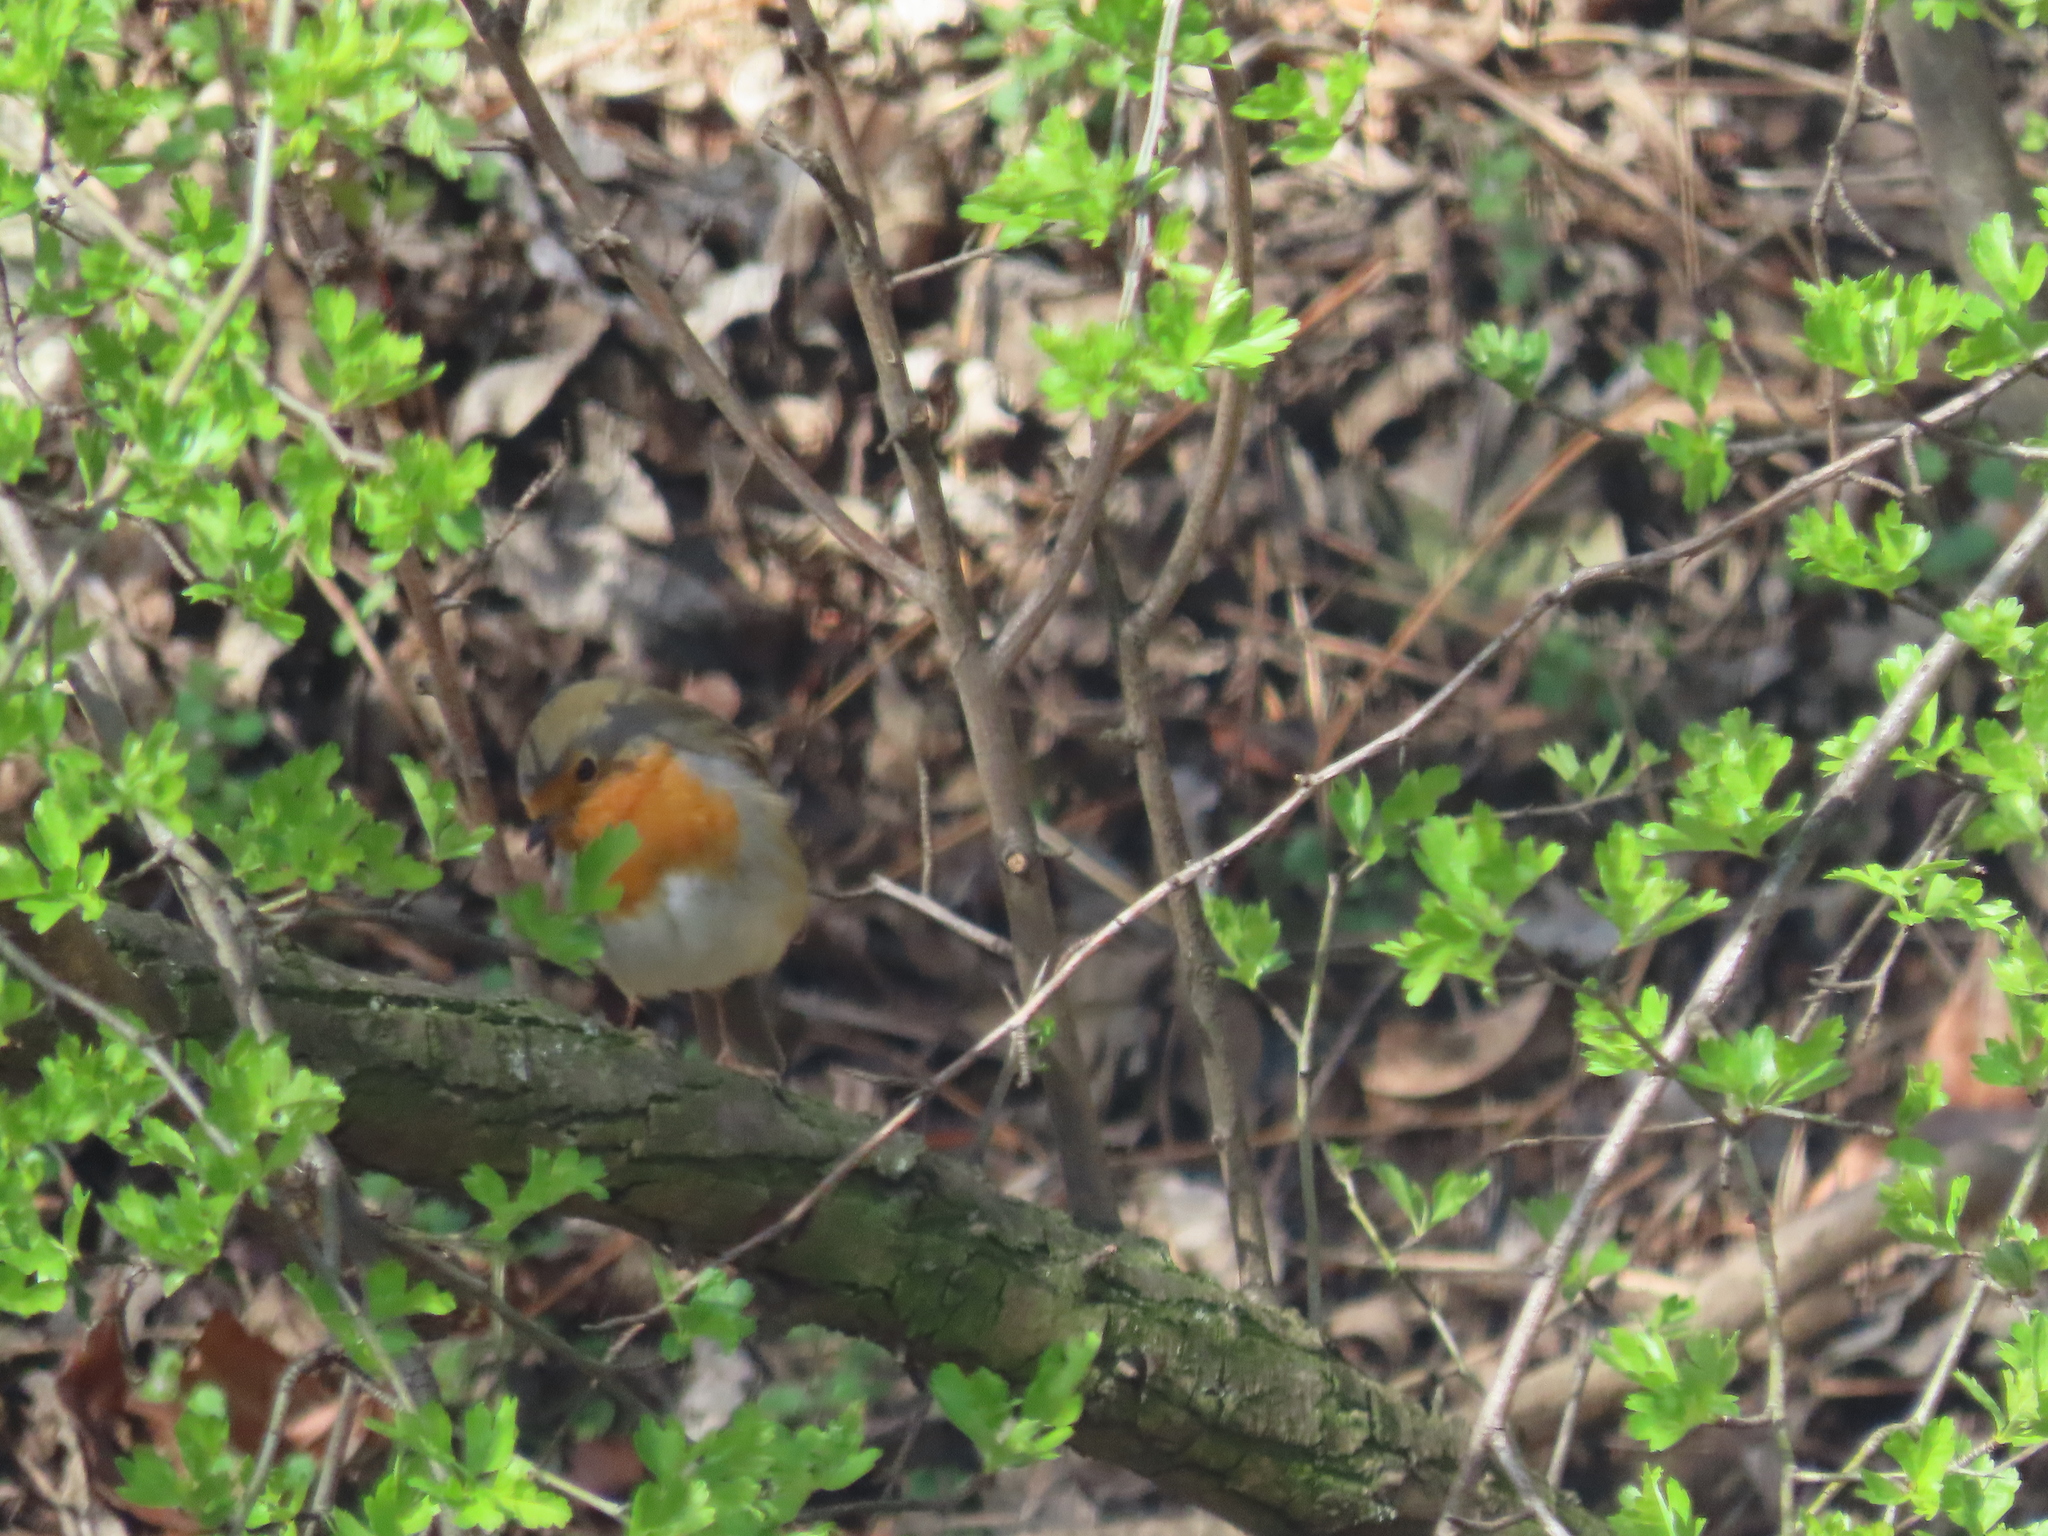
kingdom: Animalia
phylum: Chordata
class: Aves
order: Passeriformes
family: Muscicapidae
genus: Erithacus
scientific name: Erithacus rubecula
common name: European robin
